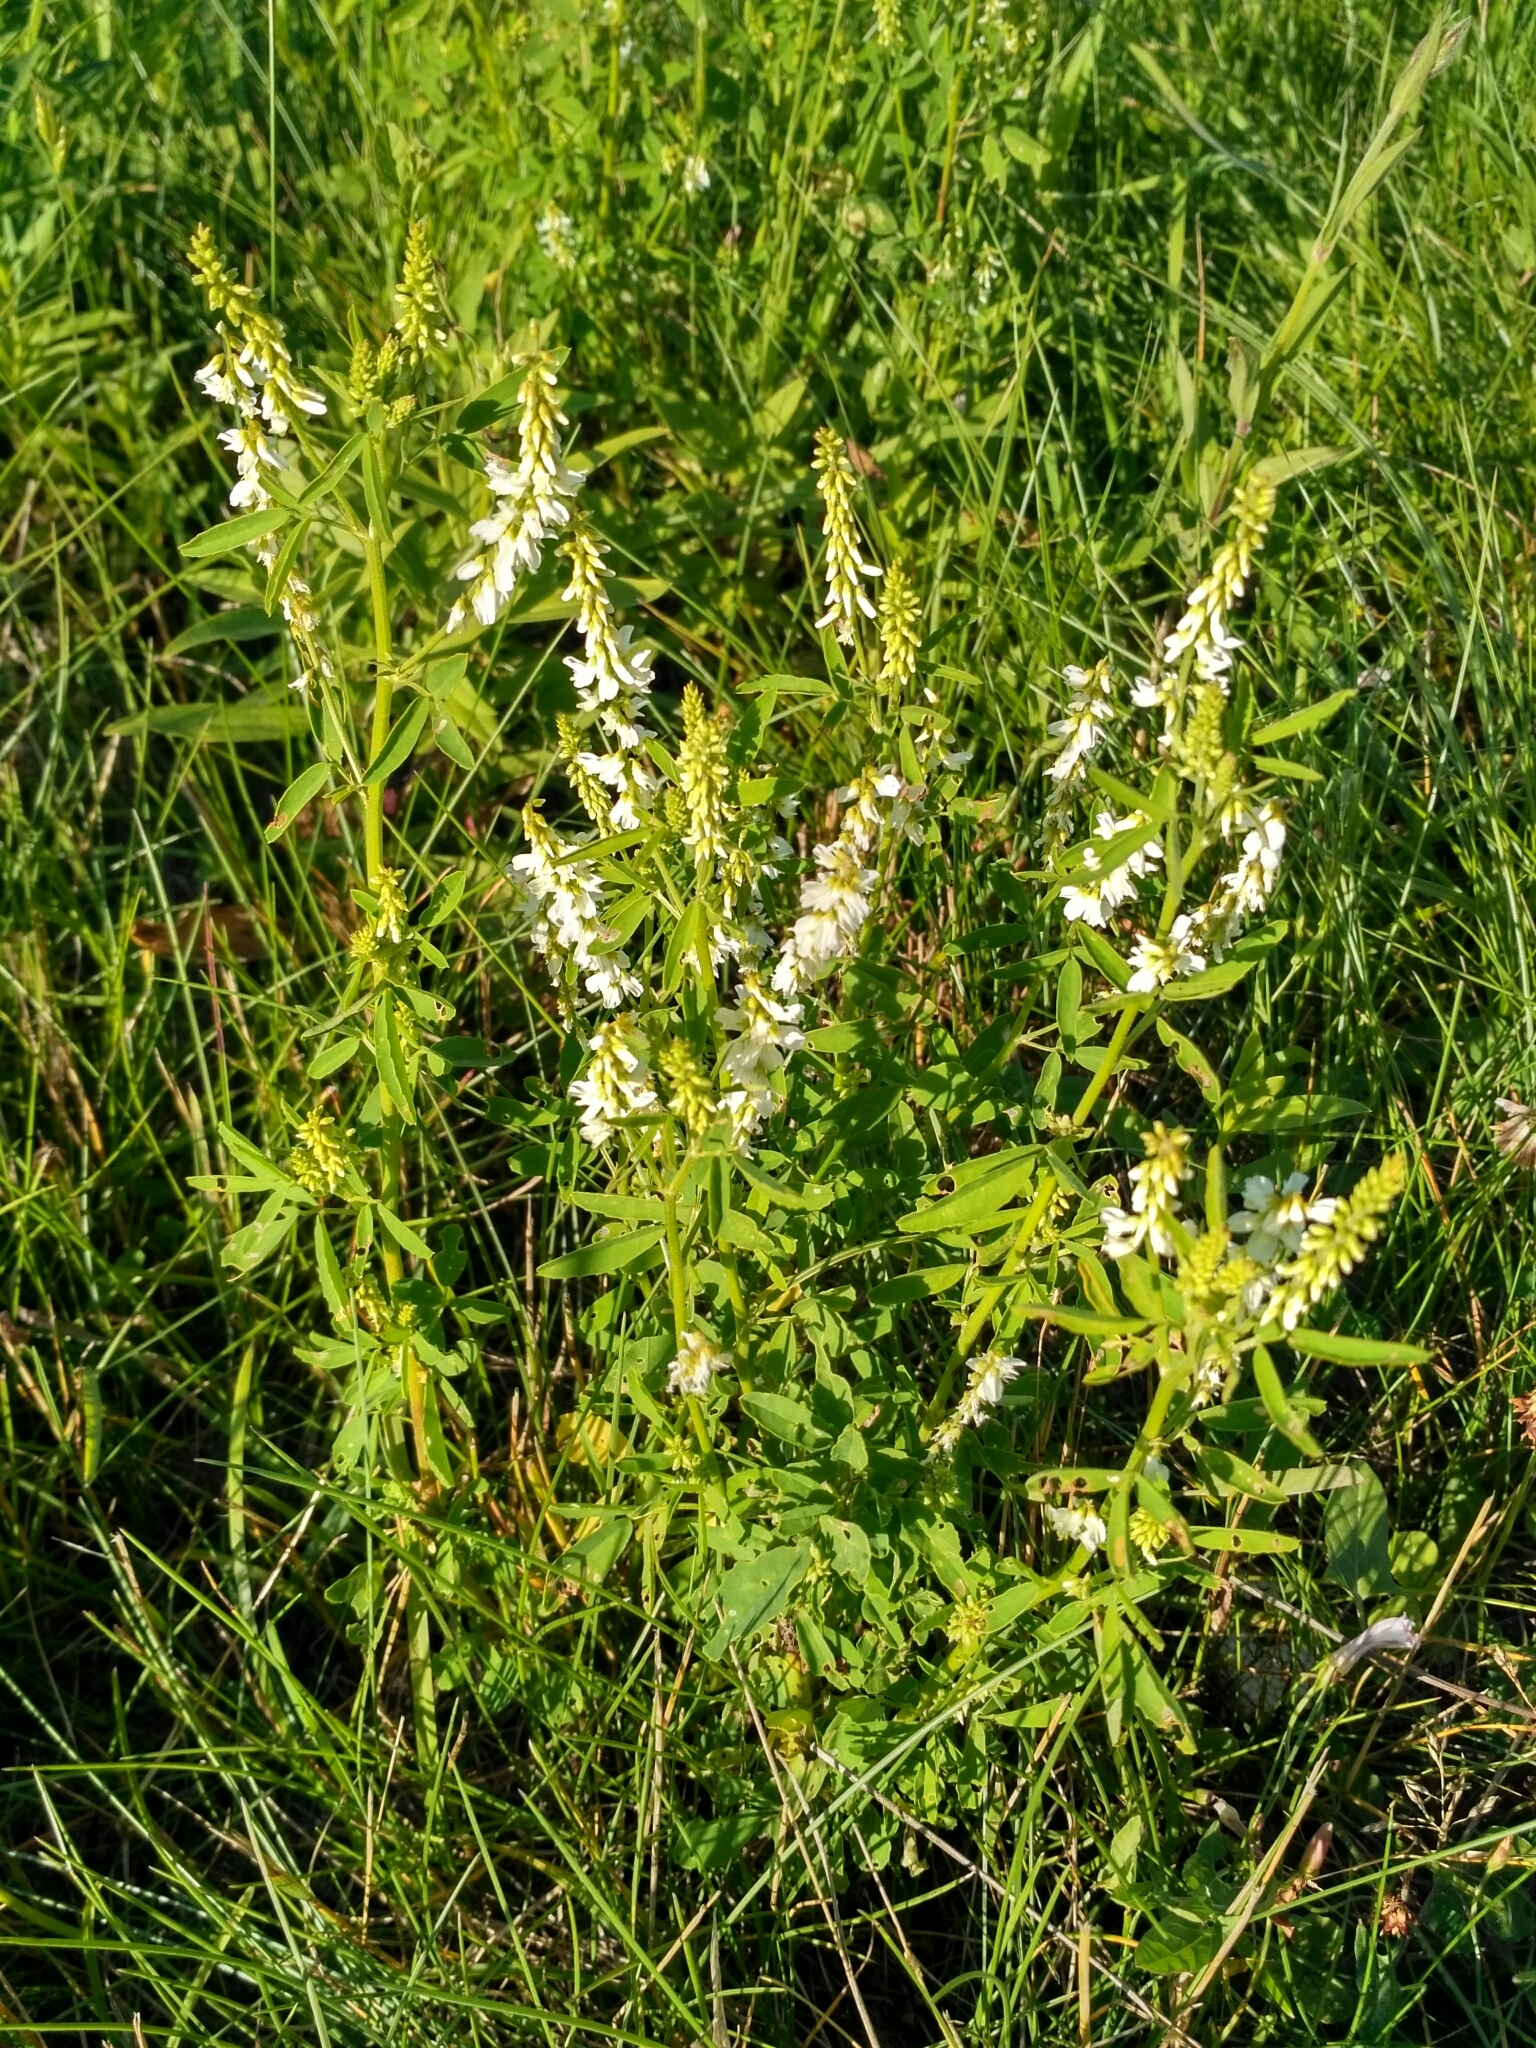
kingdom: Plantae
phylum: Tracheophyta
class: Magnoliopsida
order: Fabales
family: Fabaceae
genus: Melilotus
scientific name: Melilotus albus
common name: White melilot
